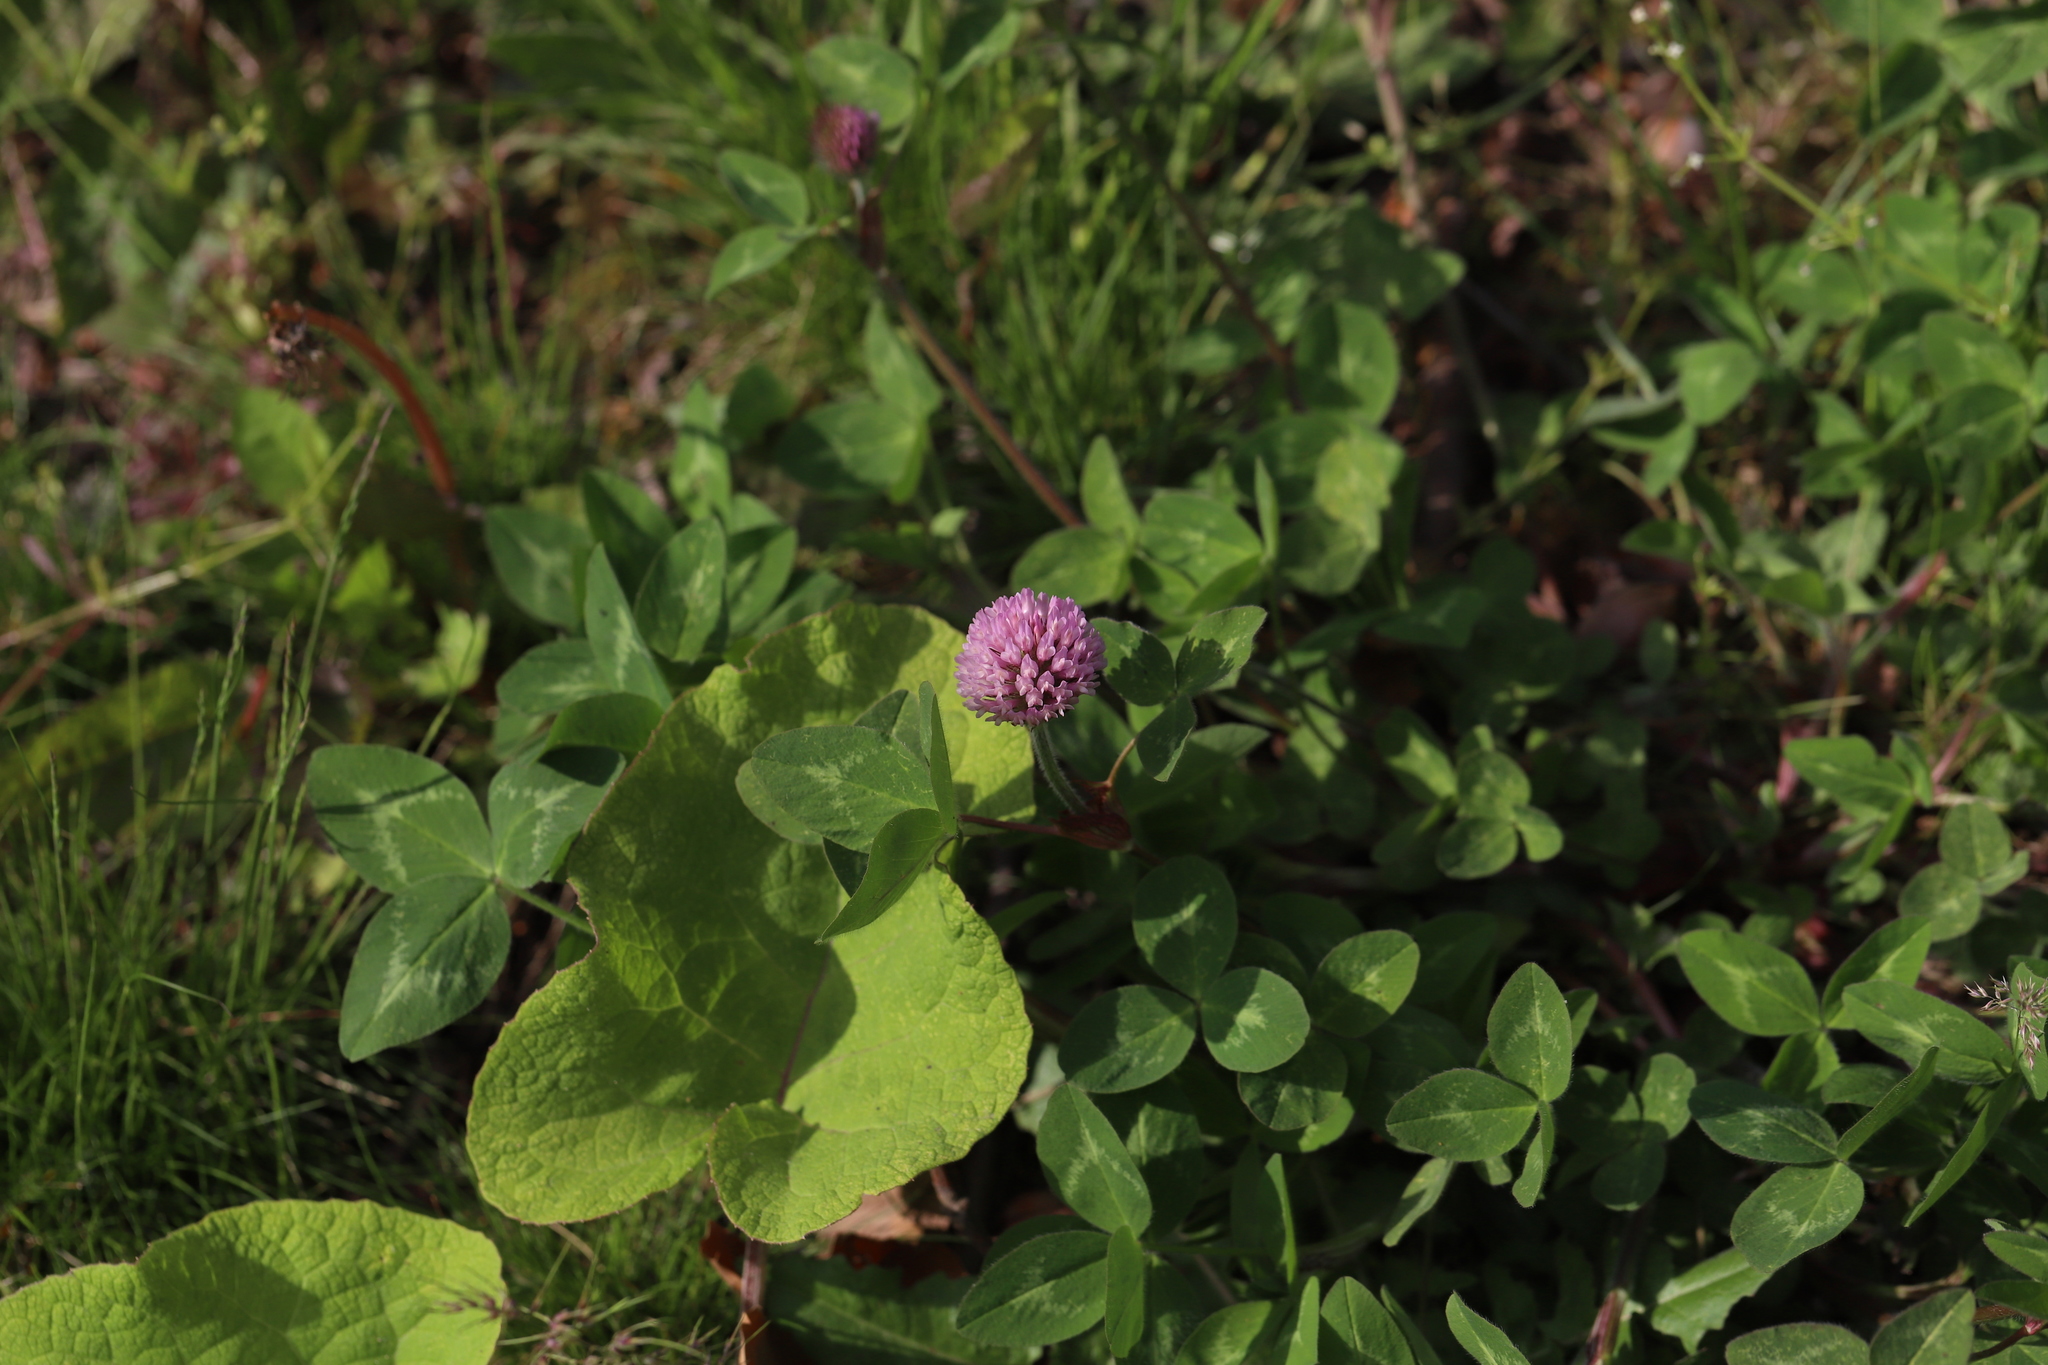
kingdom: Plantae
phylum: Tracheophyta
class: Magnoliopsida
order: Fabales
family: Fabaceae
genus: Trifolium
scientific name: Trifolium pratense
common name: Red clover
